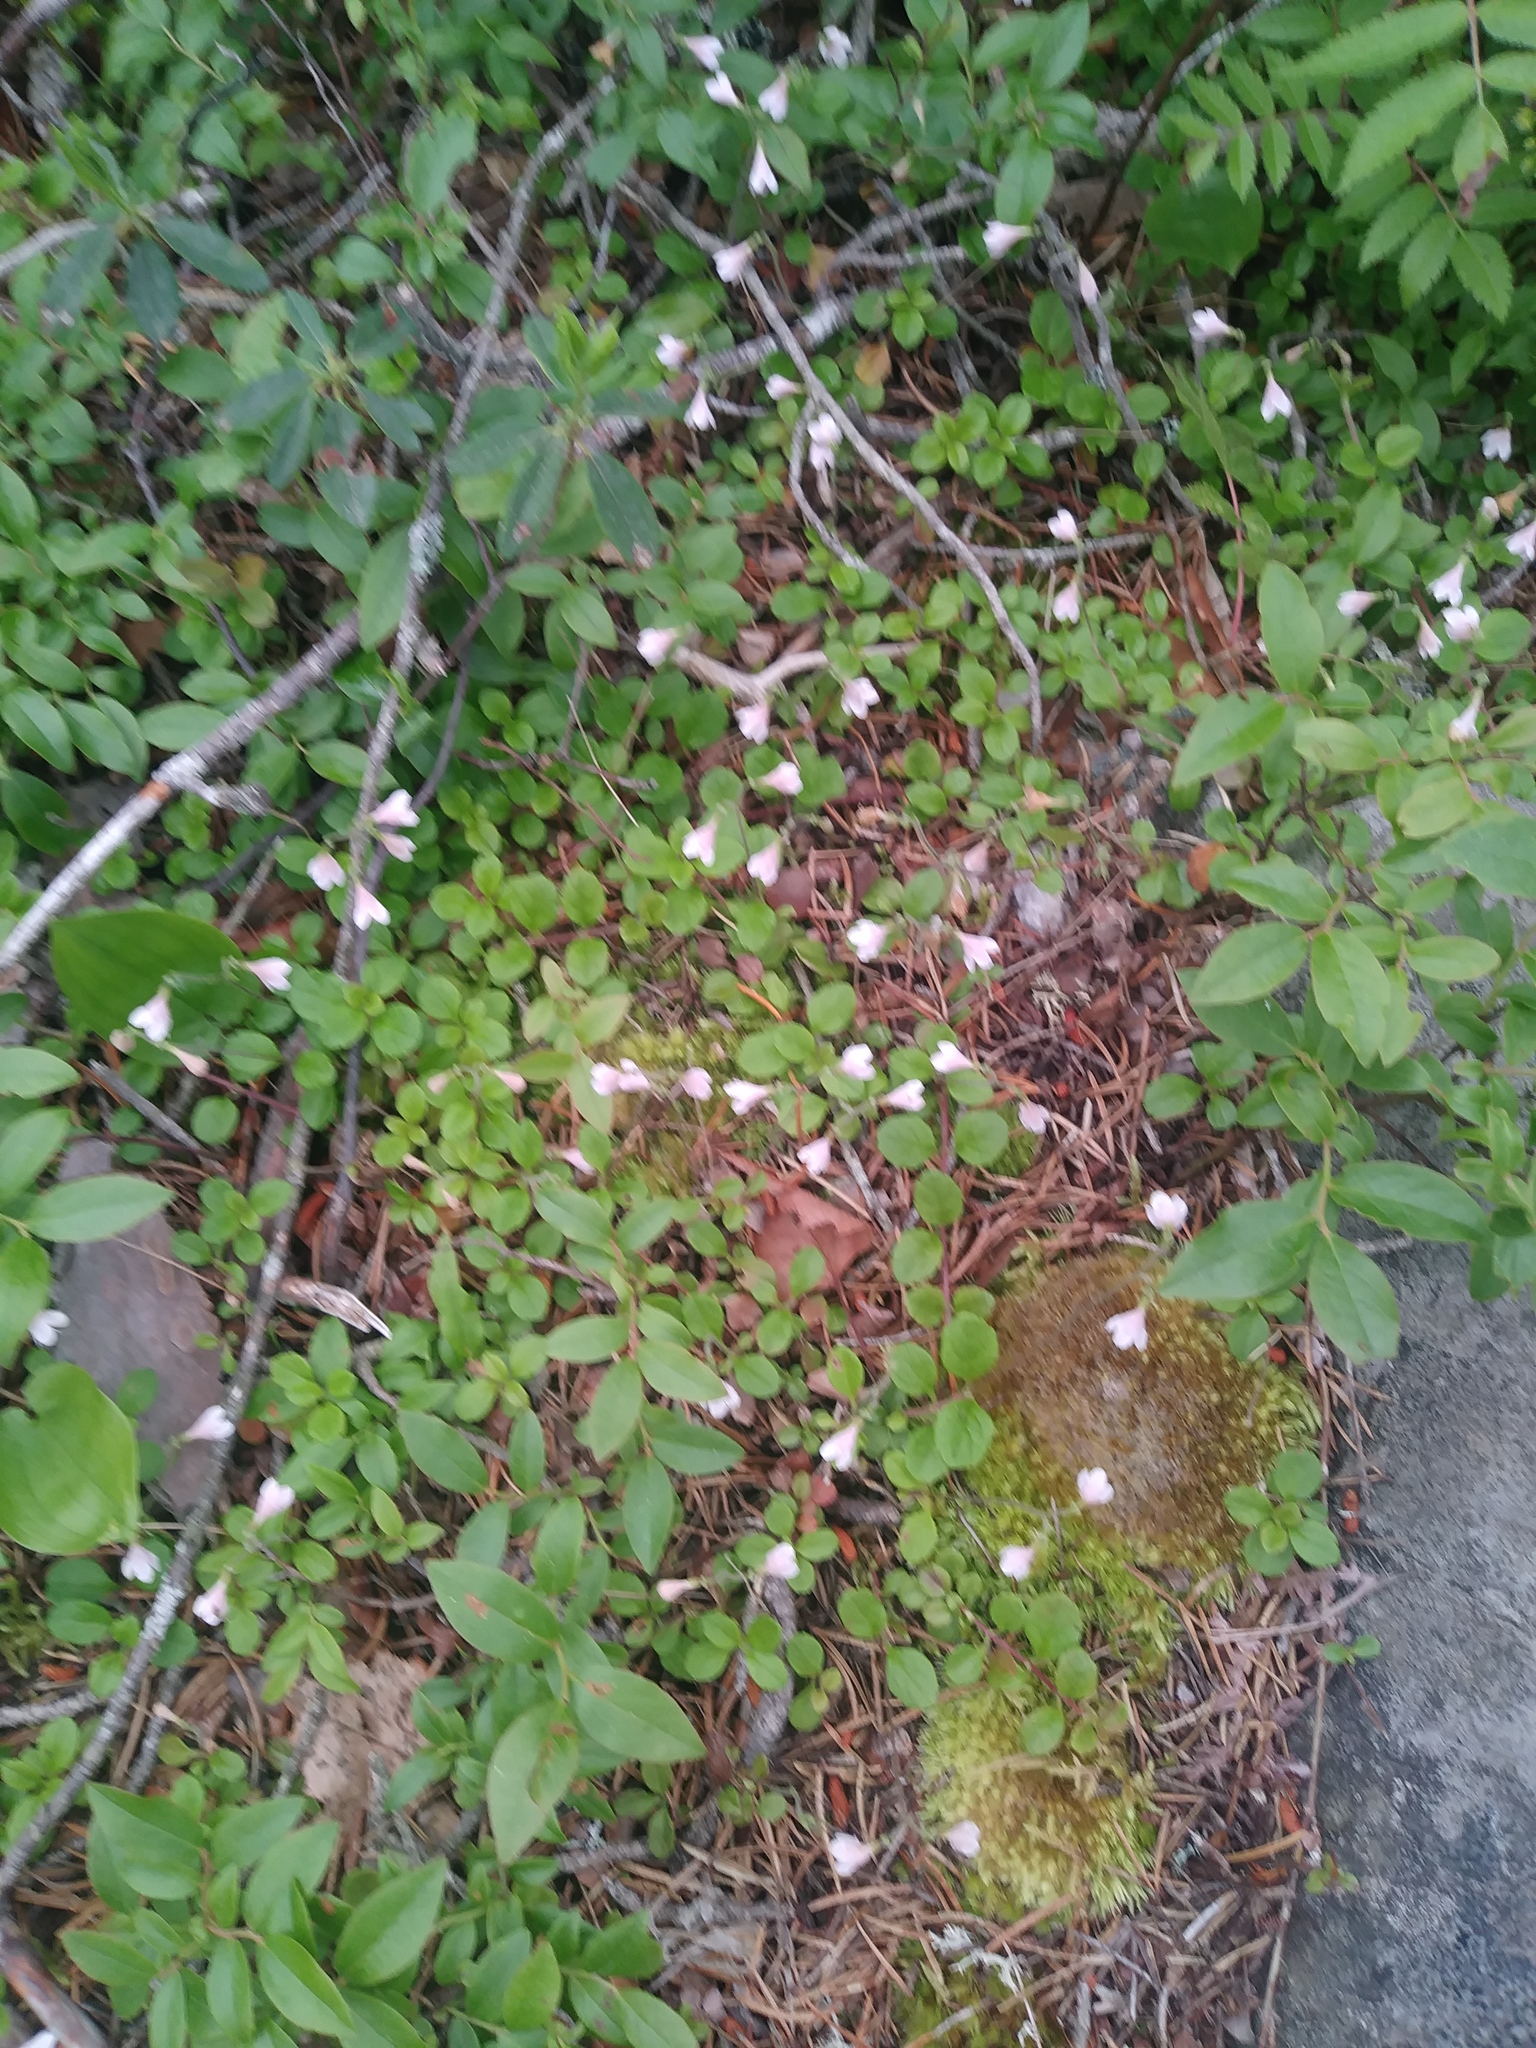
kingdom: Plantae
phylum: Tracheophyta
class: Magnoliopsida
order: Dipsacales
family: Caprifoliaceae
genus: Linnaea
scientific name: Linnaea borealis
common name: Twinflower
